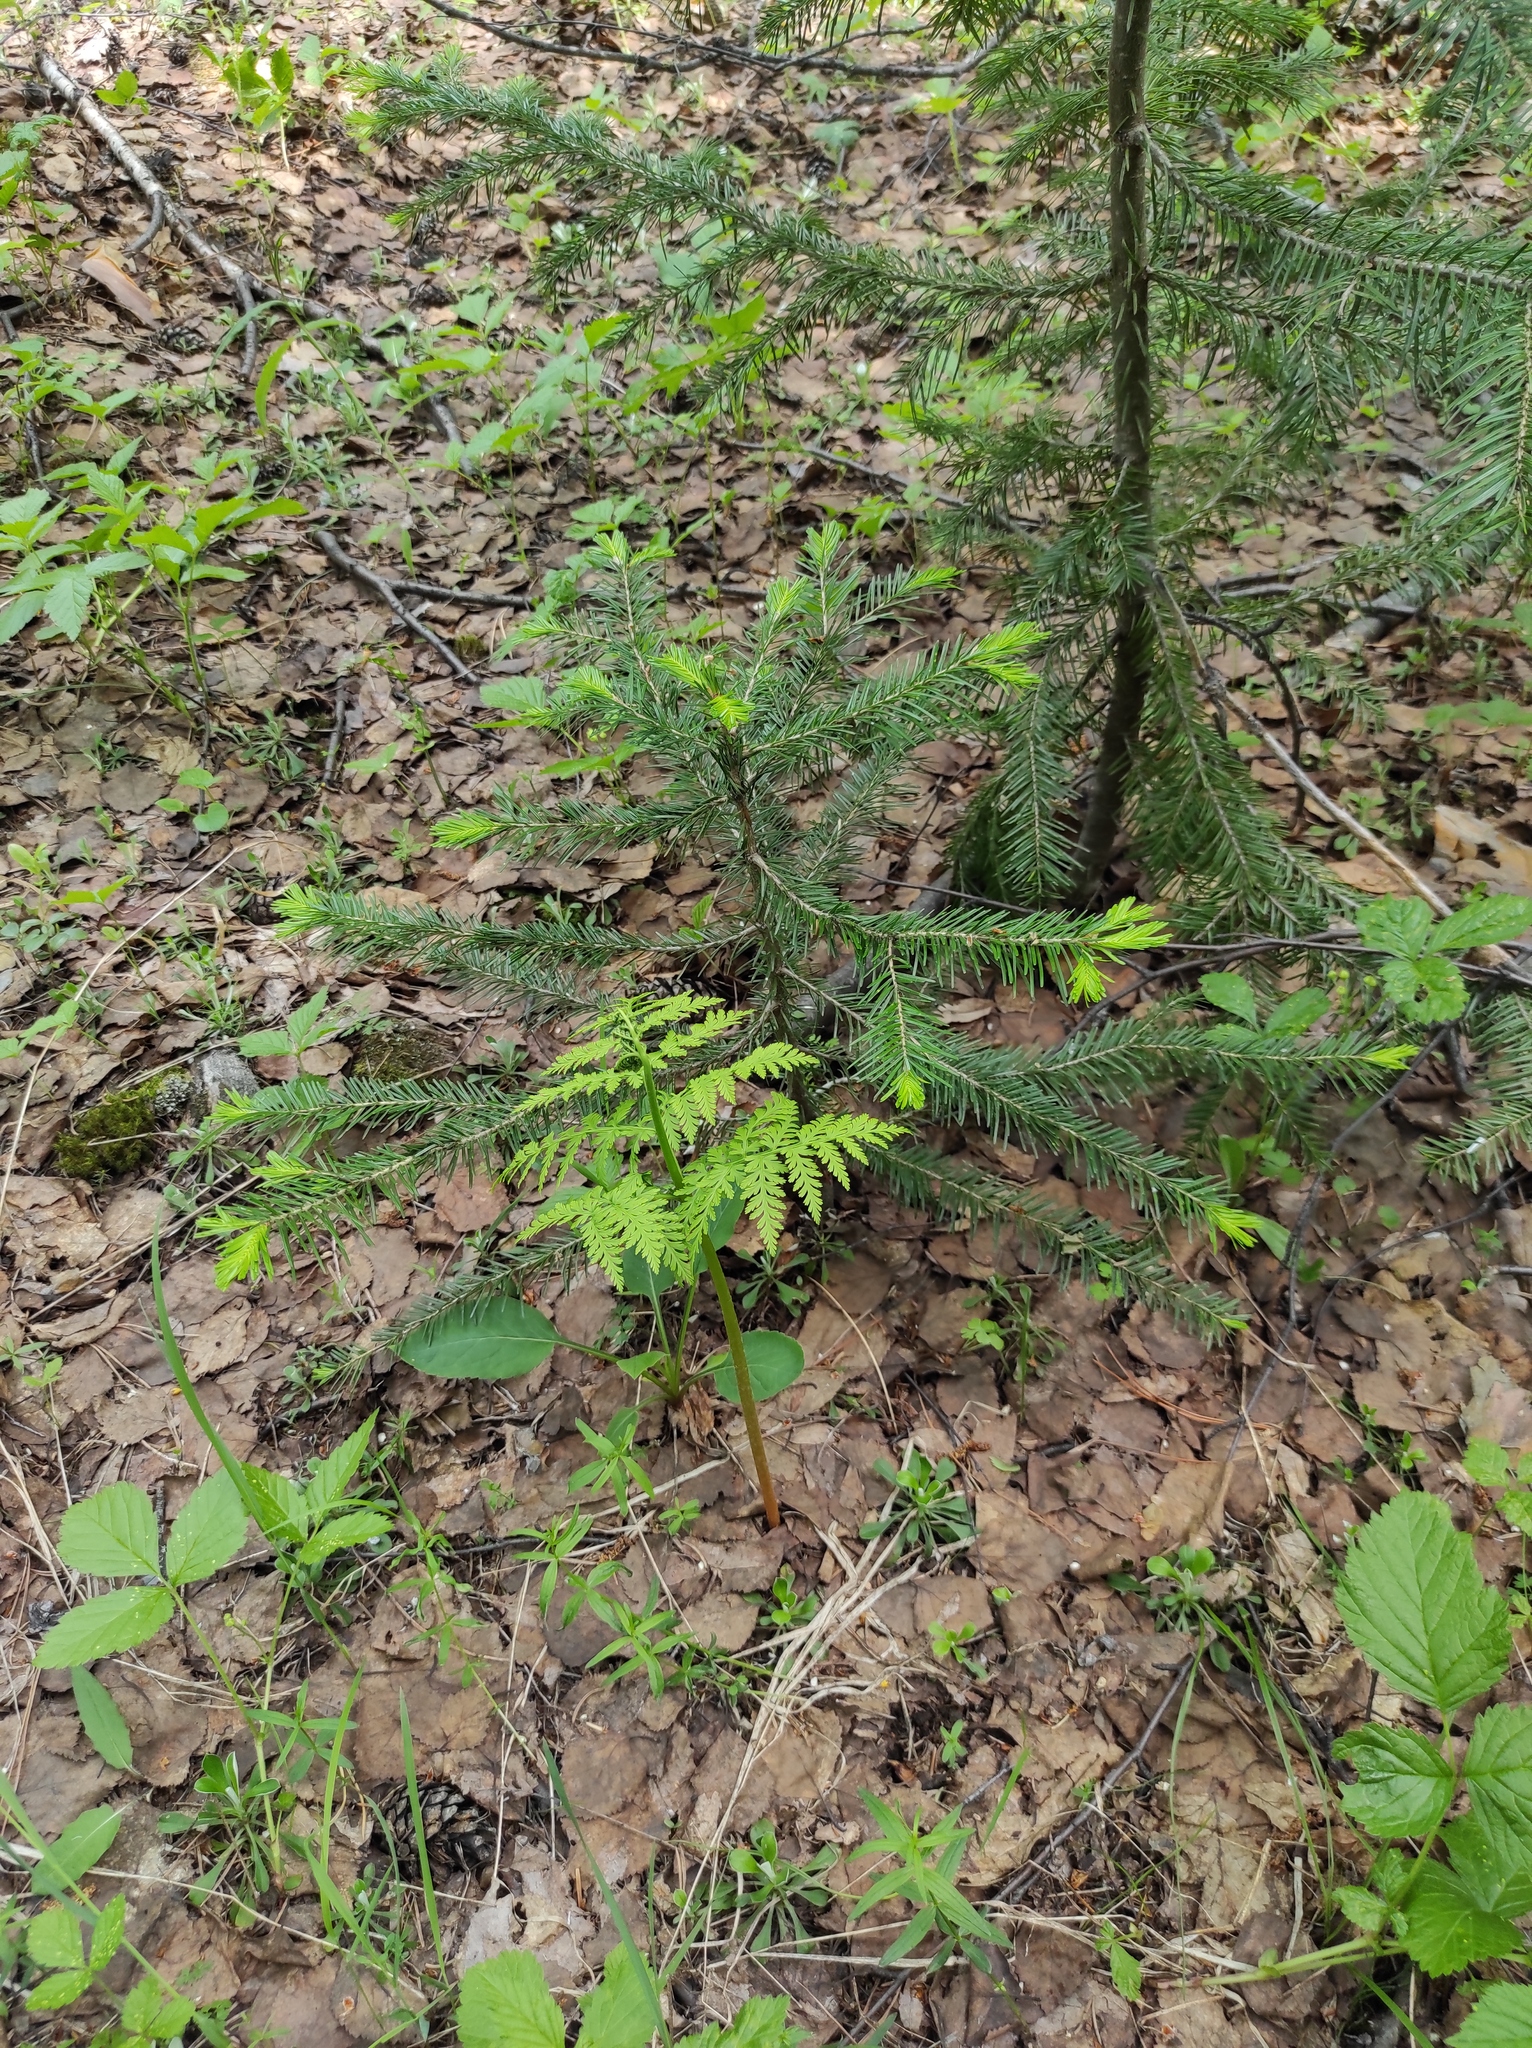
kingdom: Plantae
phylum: Tracheophyta
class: Polypodiopsida
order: Ophioglossales
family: Ophioglossaceae
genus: Botrypus
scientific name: Botrypus virginianus
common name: Common grapefern
